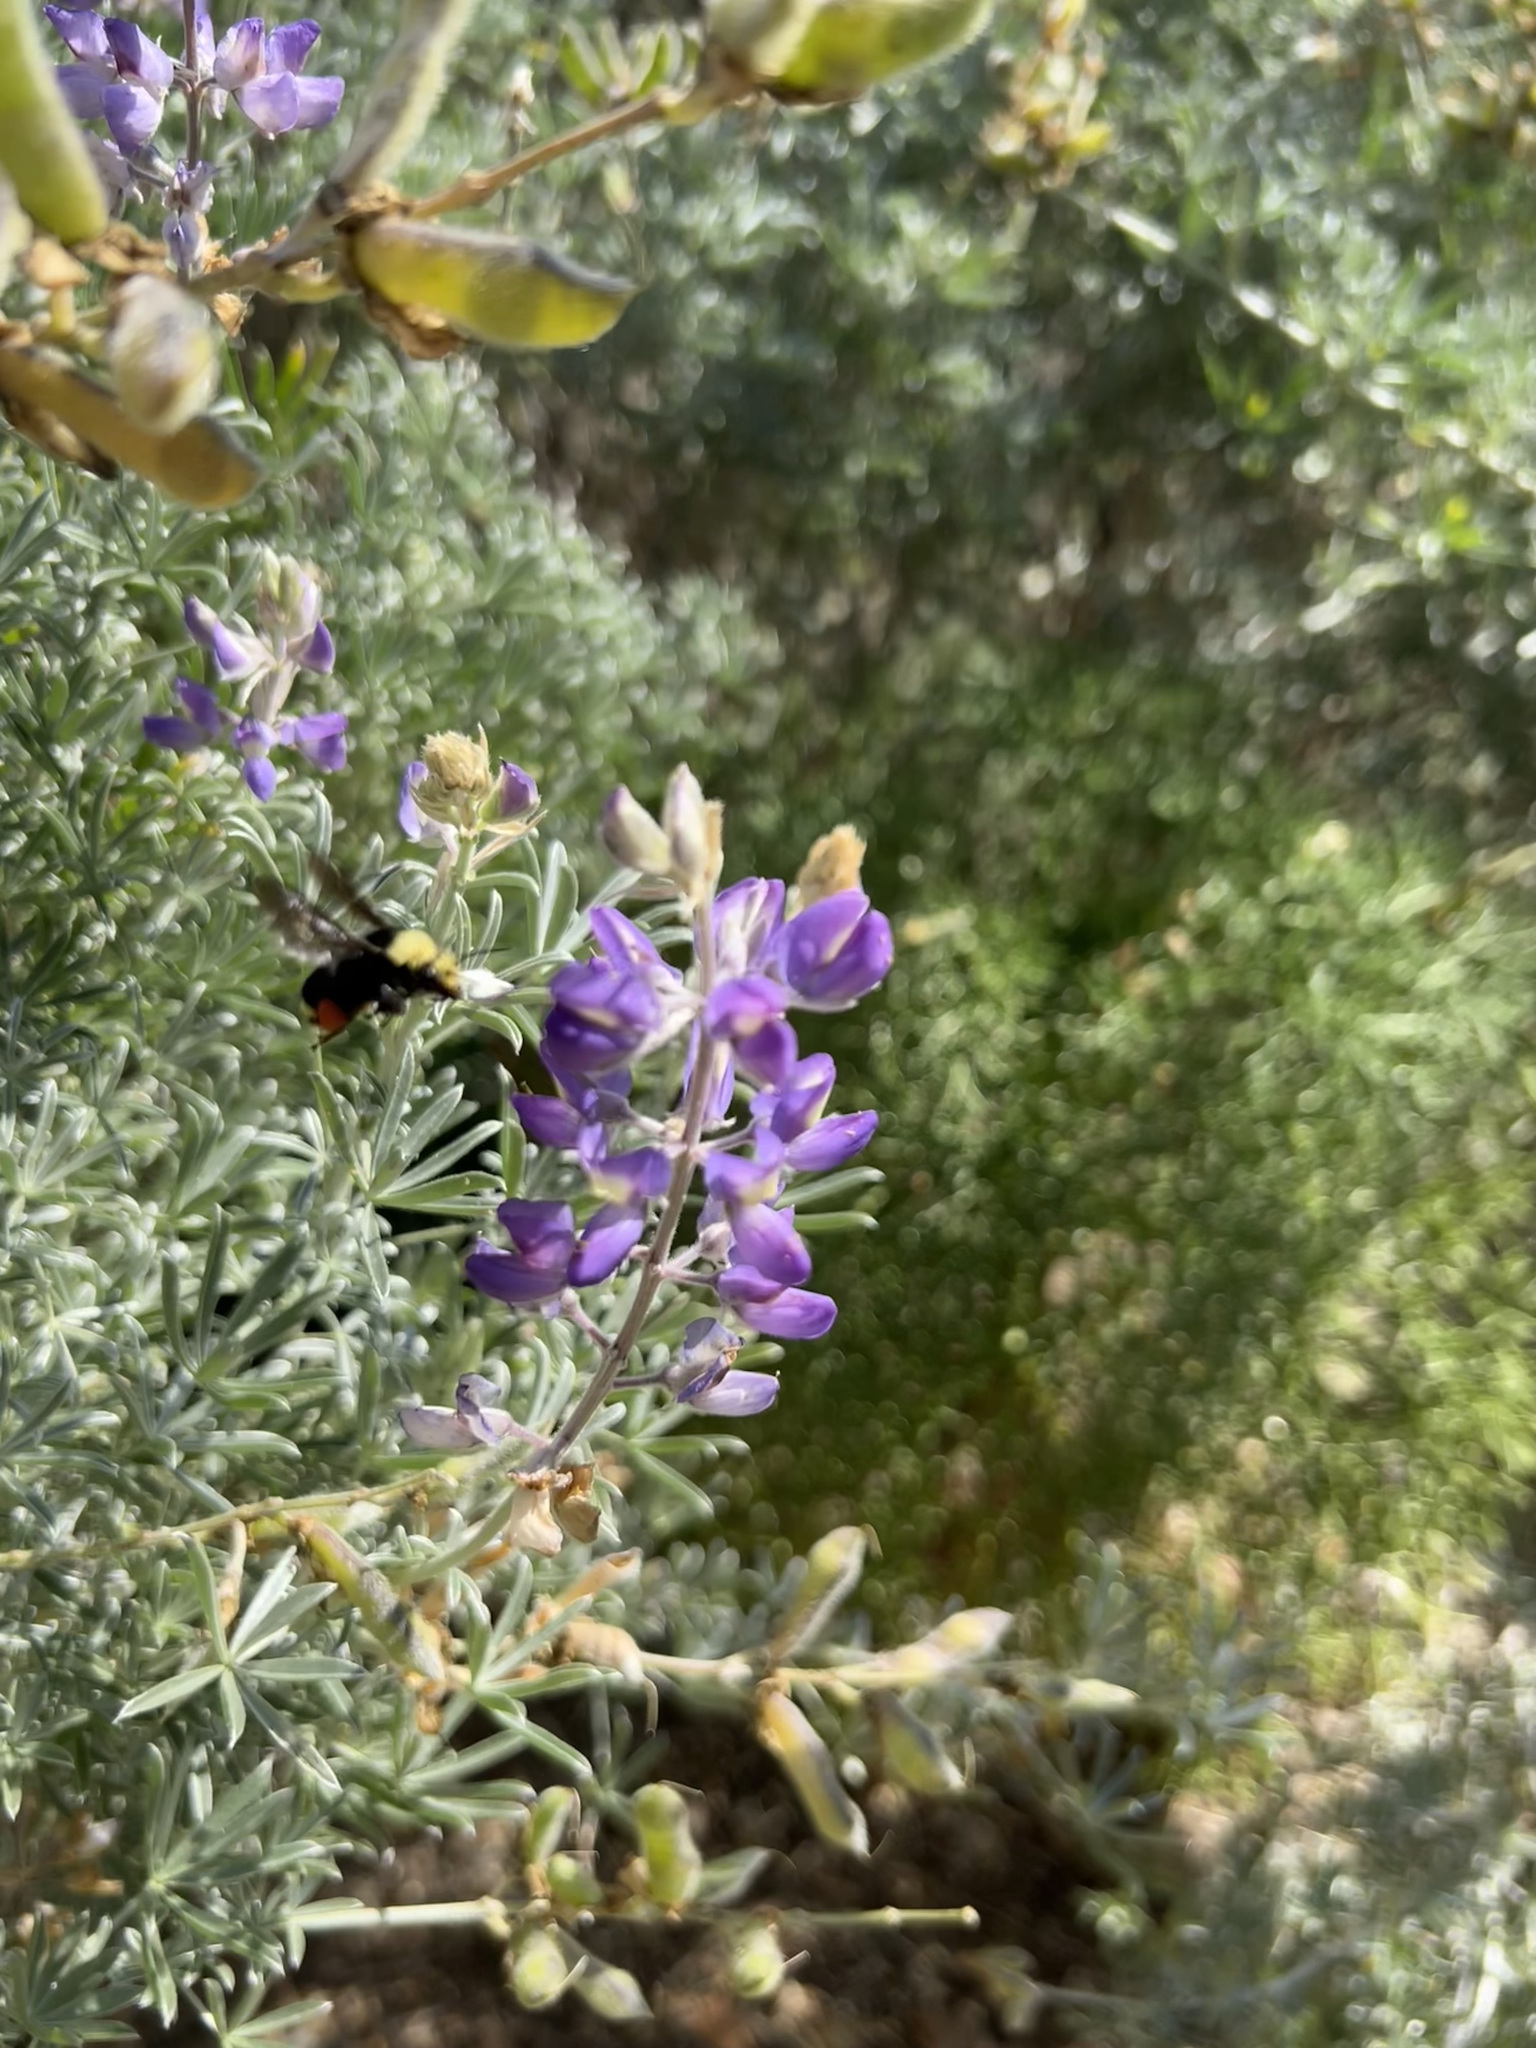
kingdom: Animalia
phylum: Arthropoda
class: Insecta
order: Hymenoptera
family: Apidae
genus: Bombus
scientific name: Bombus vosnesenskii
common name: Vosnesensky bumble bee
